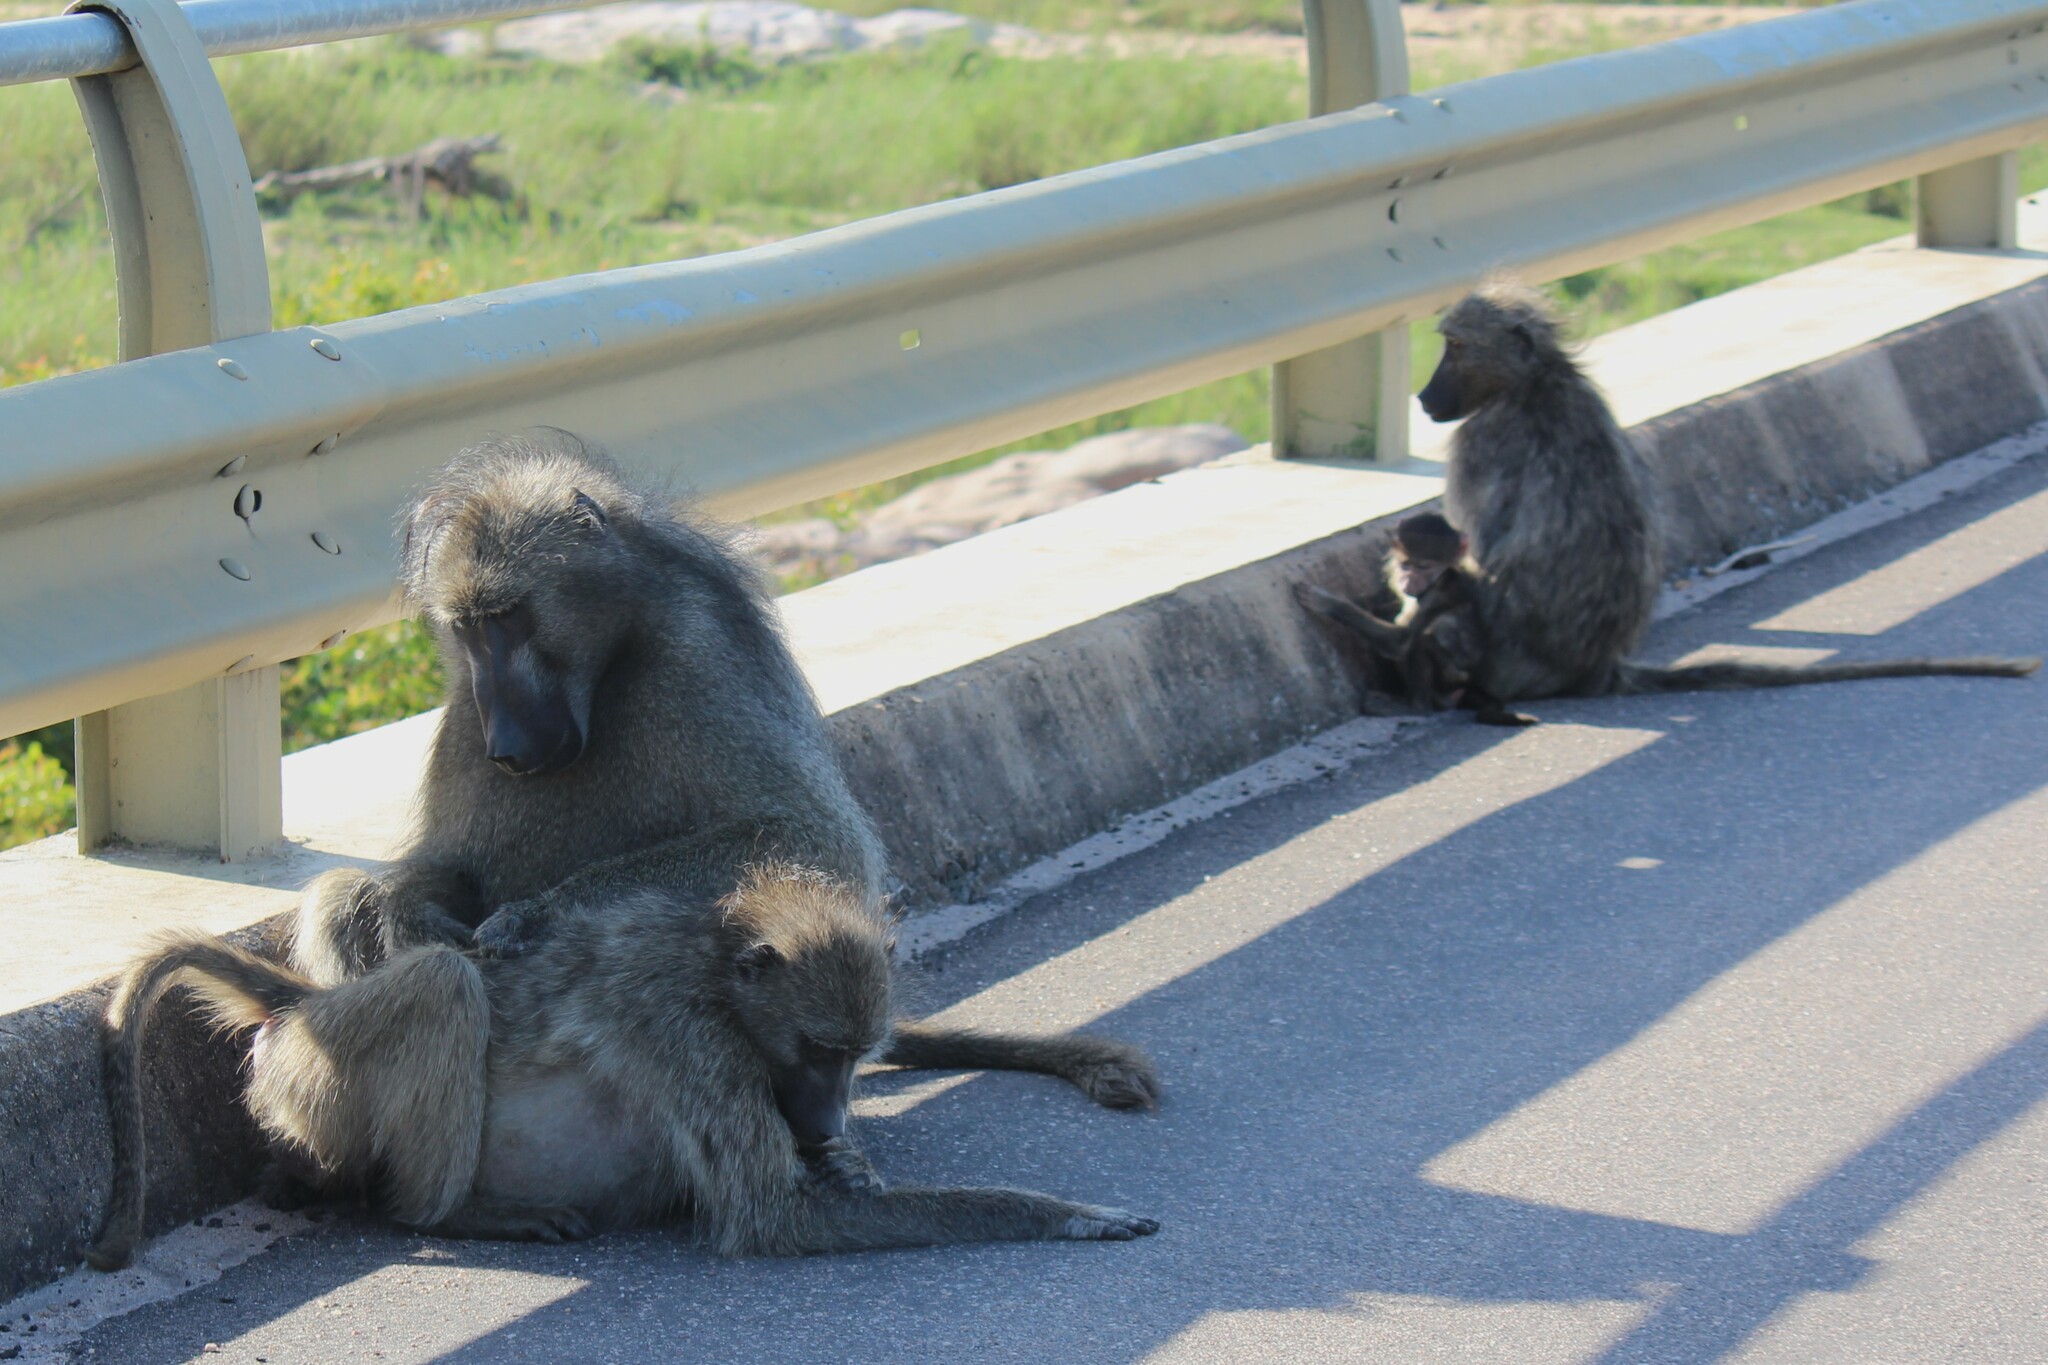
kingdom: Animalia
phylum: Chordata
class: Mammalia
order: Primates
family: Cercopithecidae
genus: Papio
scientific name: Papio ursinus
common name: Chacma baboon
